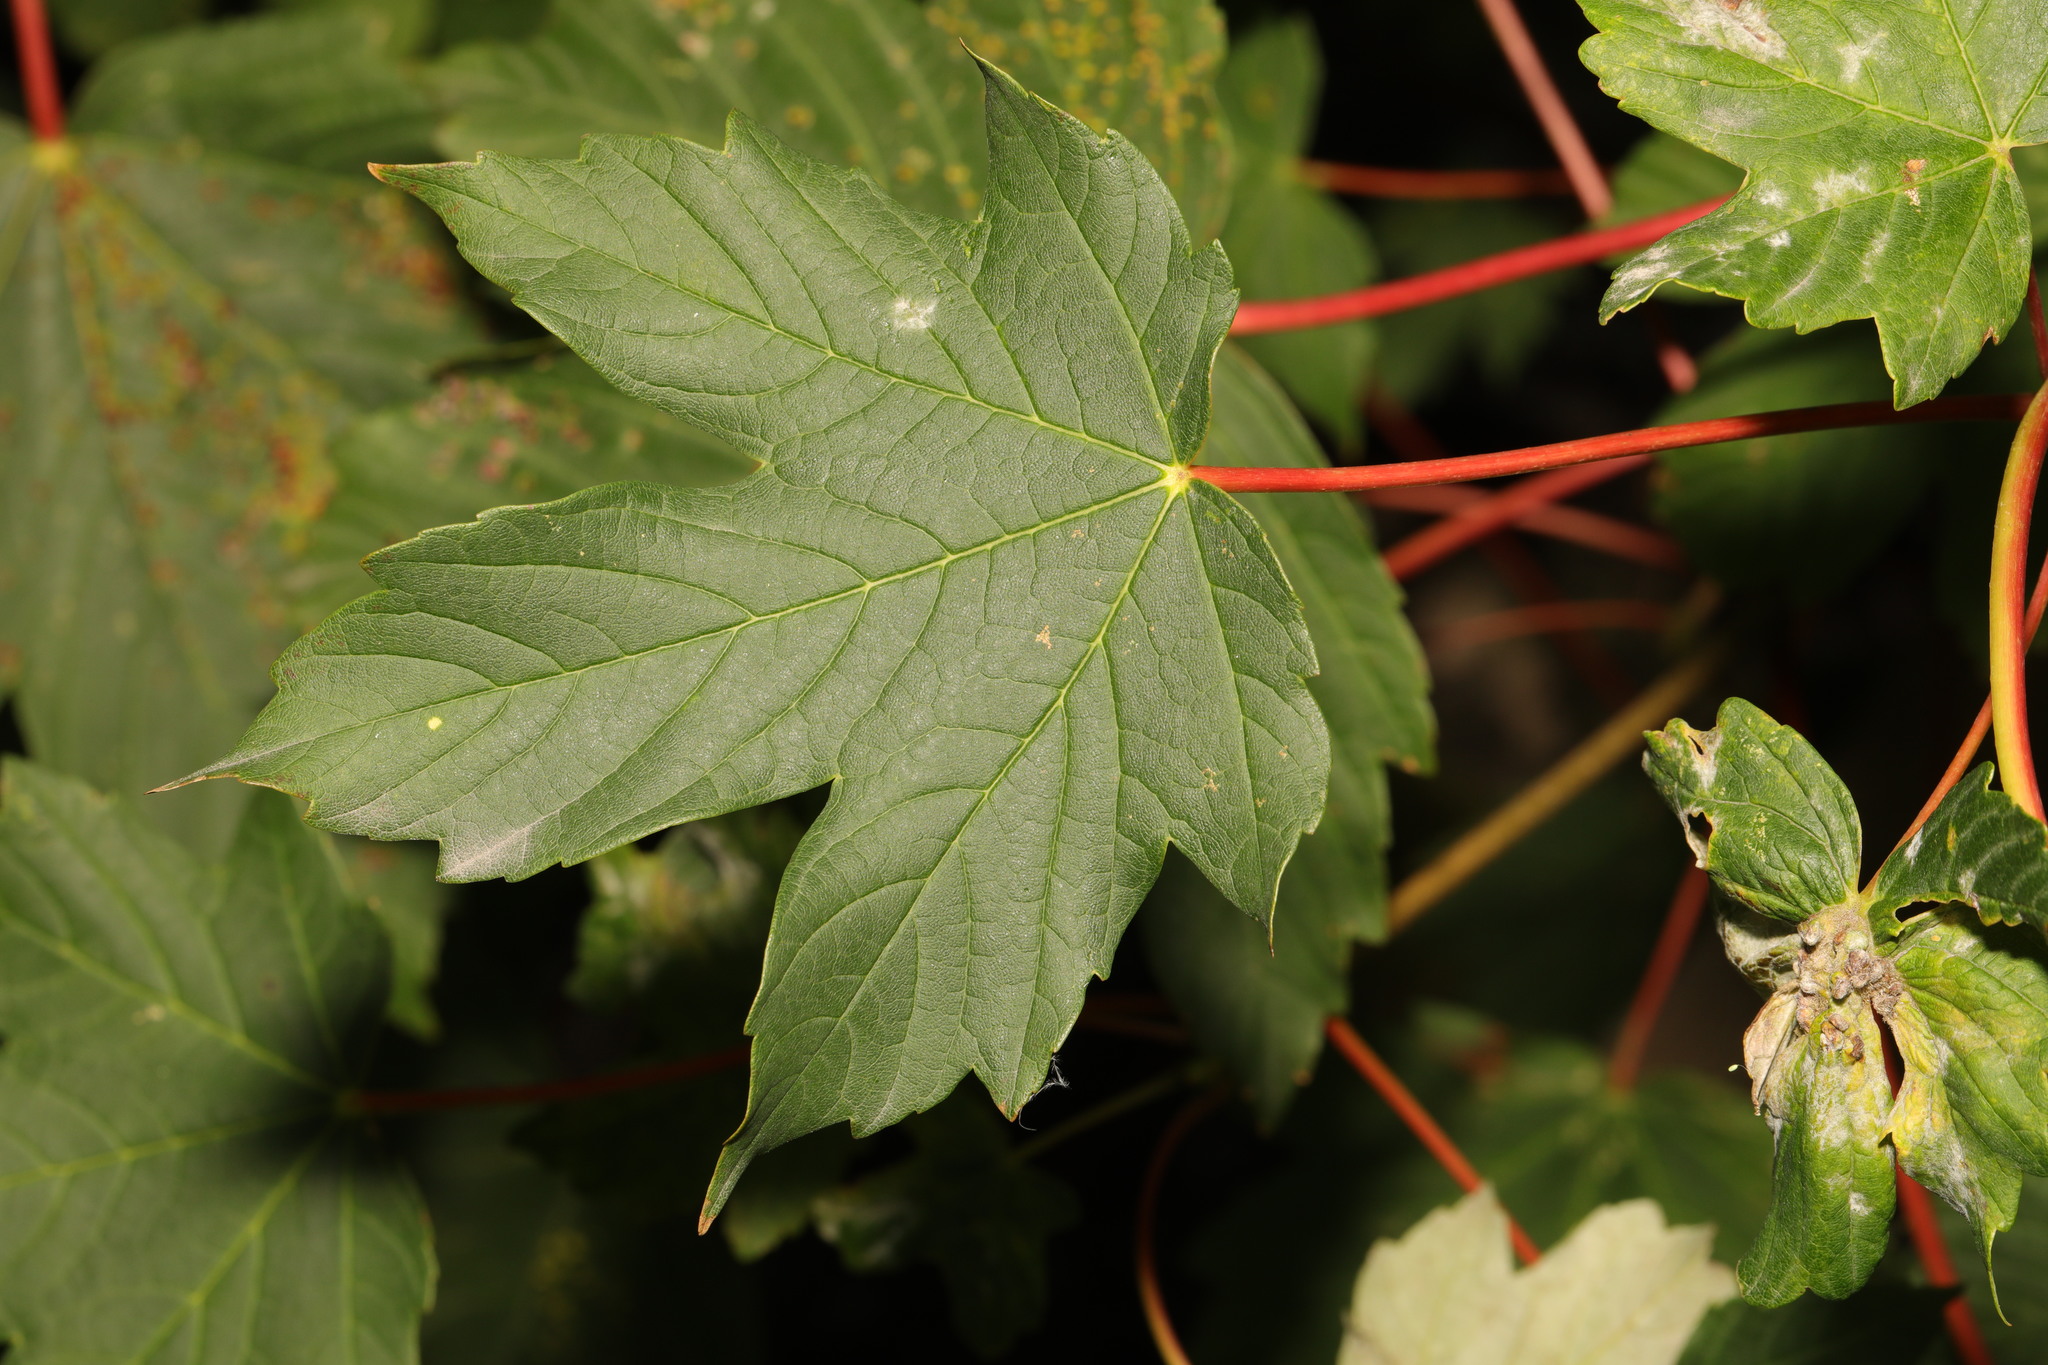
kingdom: Plantae
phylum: Tracheophyta
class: Magnoliopsida
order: Sapindales
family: Sapindaceae
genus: Acer
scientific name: Acer pseudoplatanus
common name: Sycamore
